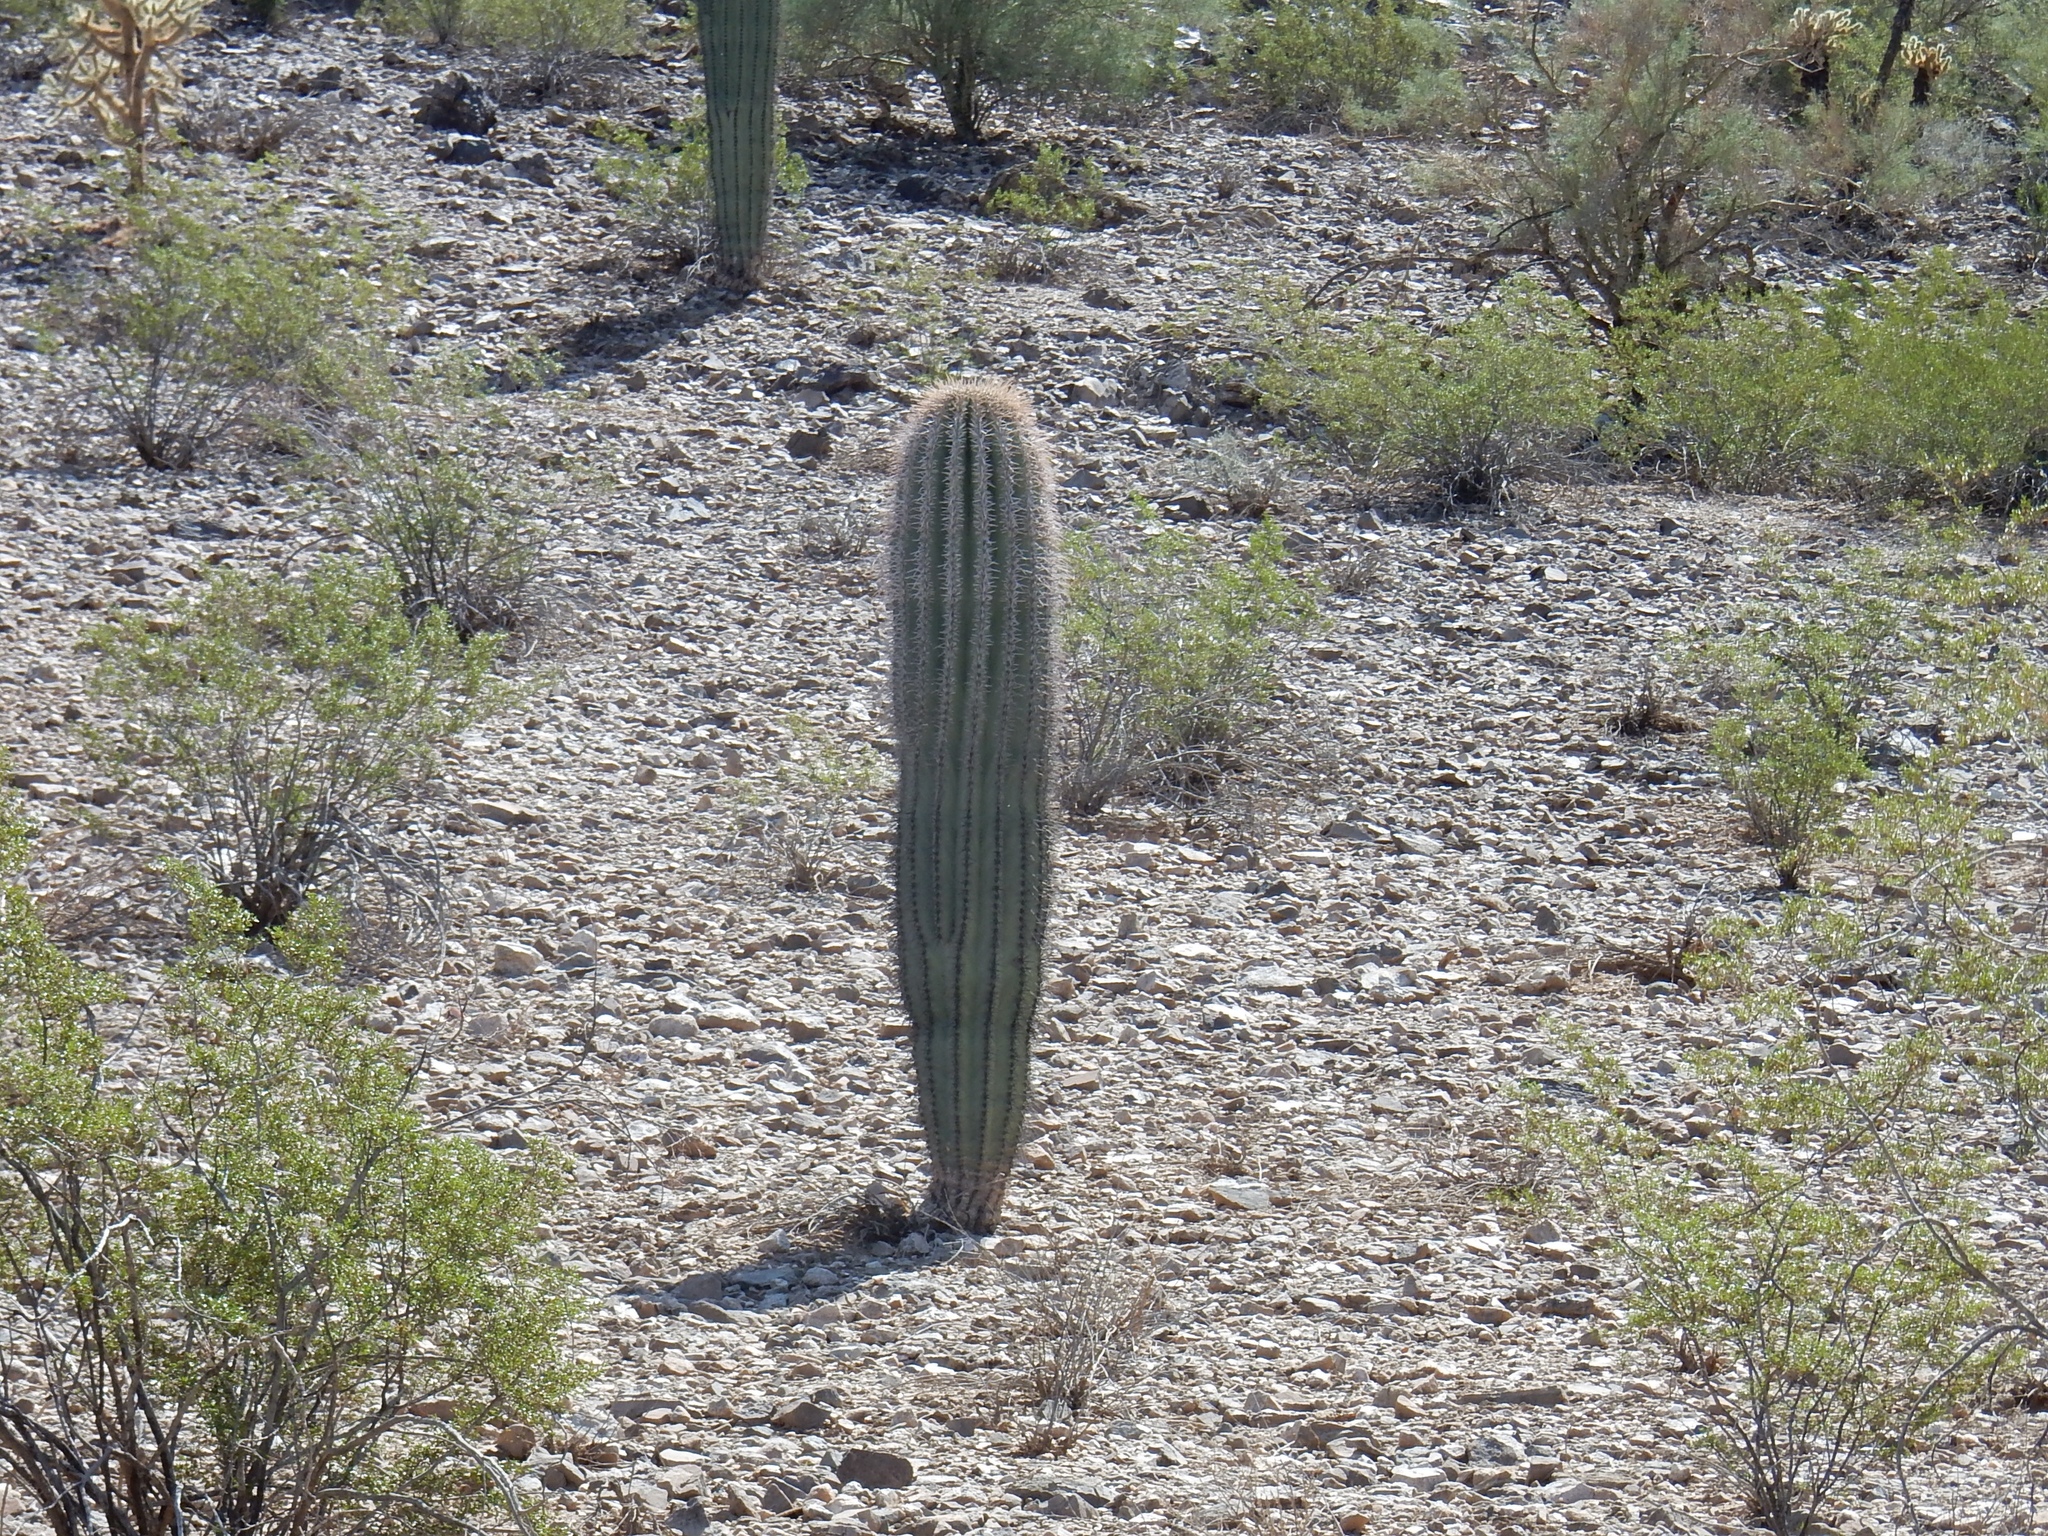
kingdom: Plantae
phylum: Tracheophyta
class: Magnoliopsida
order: Caryophyllales
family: Cactaceae
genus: Carnegiea
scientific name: Carnegiea gigantea
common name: Saguaro
